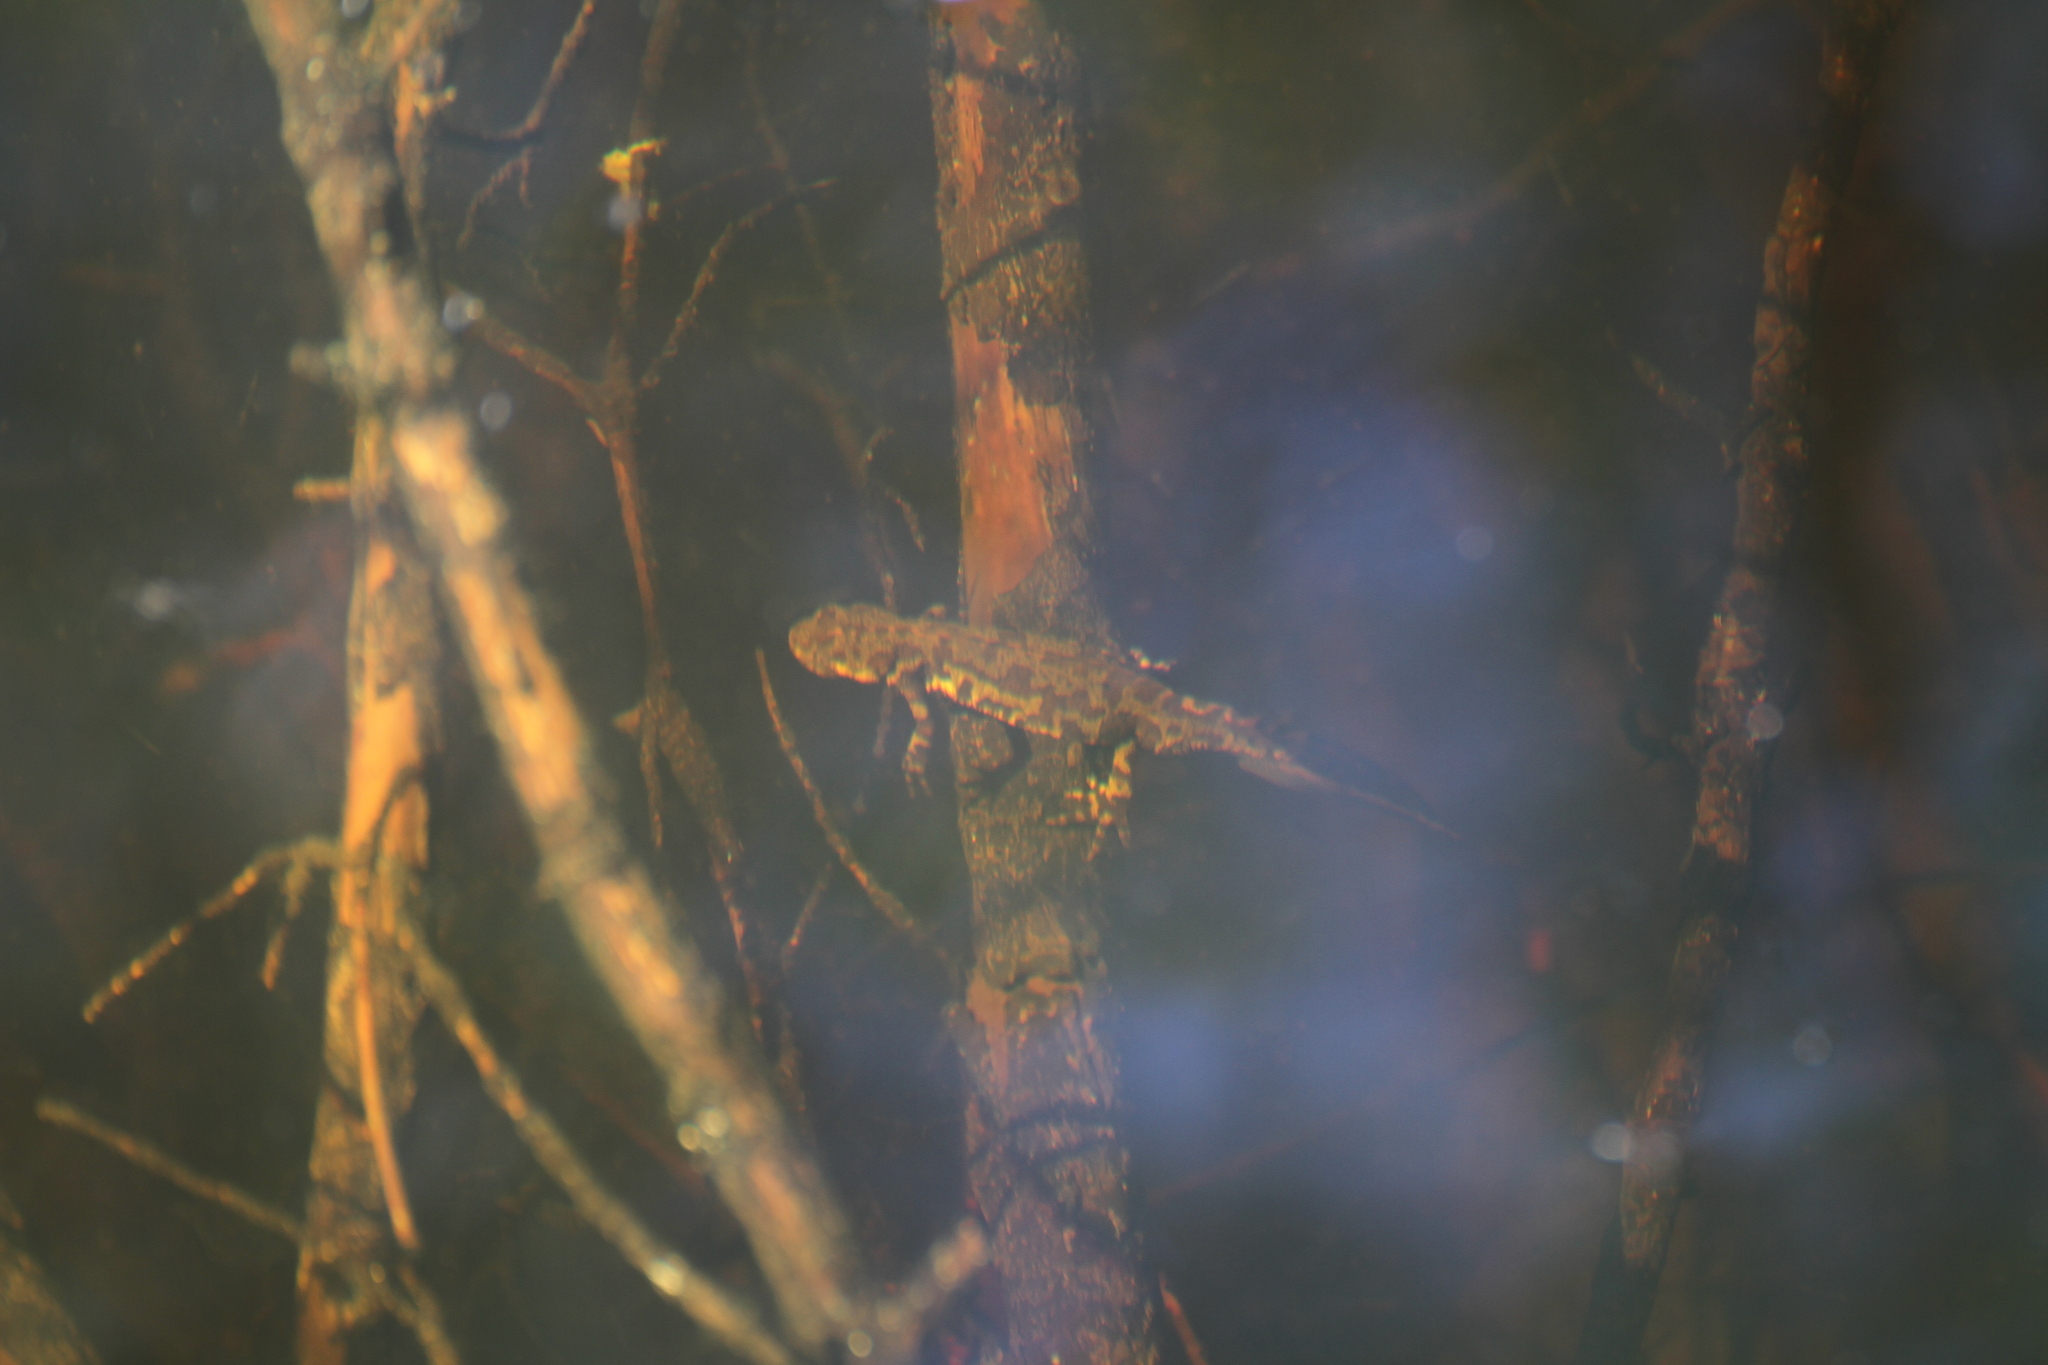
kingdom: Animalia
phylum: Chordata
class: Amphibia
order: Caudata
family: Salamandridae
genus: Triturus
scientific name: Triturus marmoratus
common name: Marbled newt
